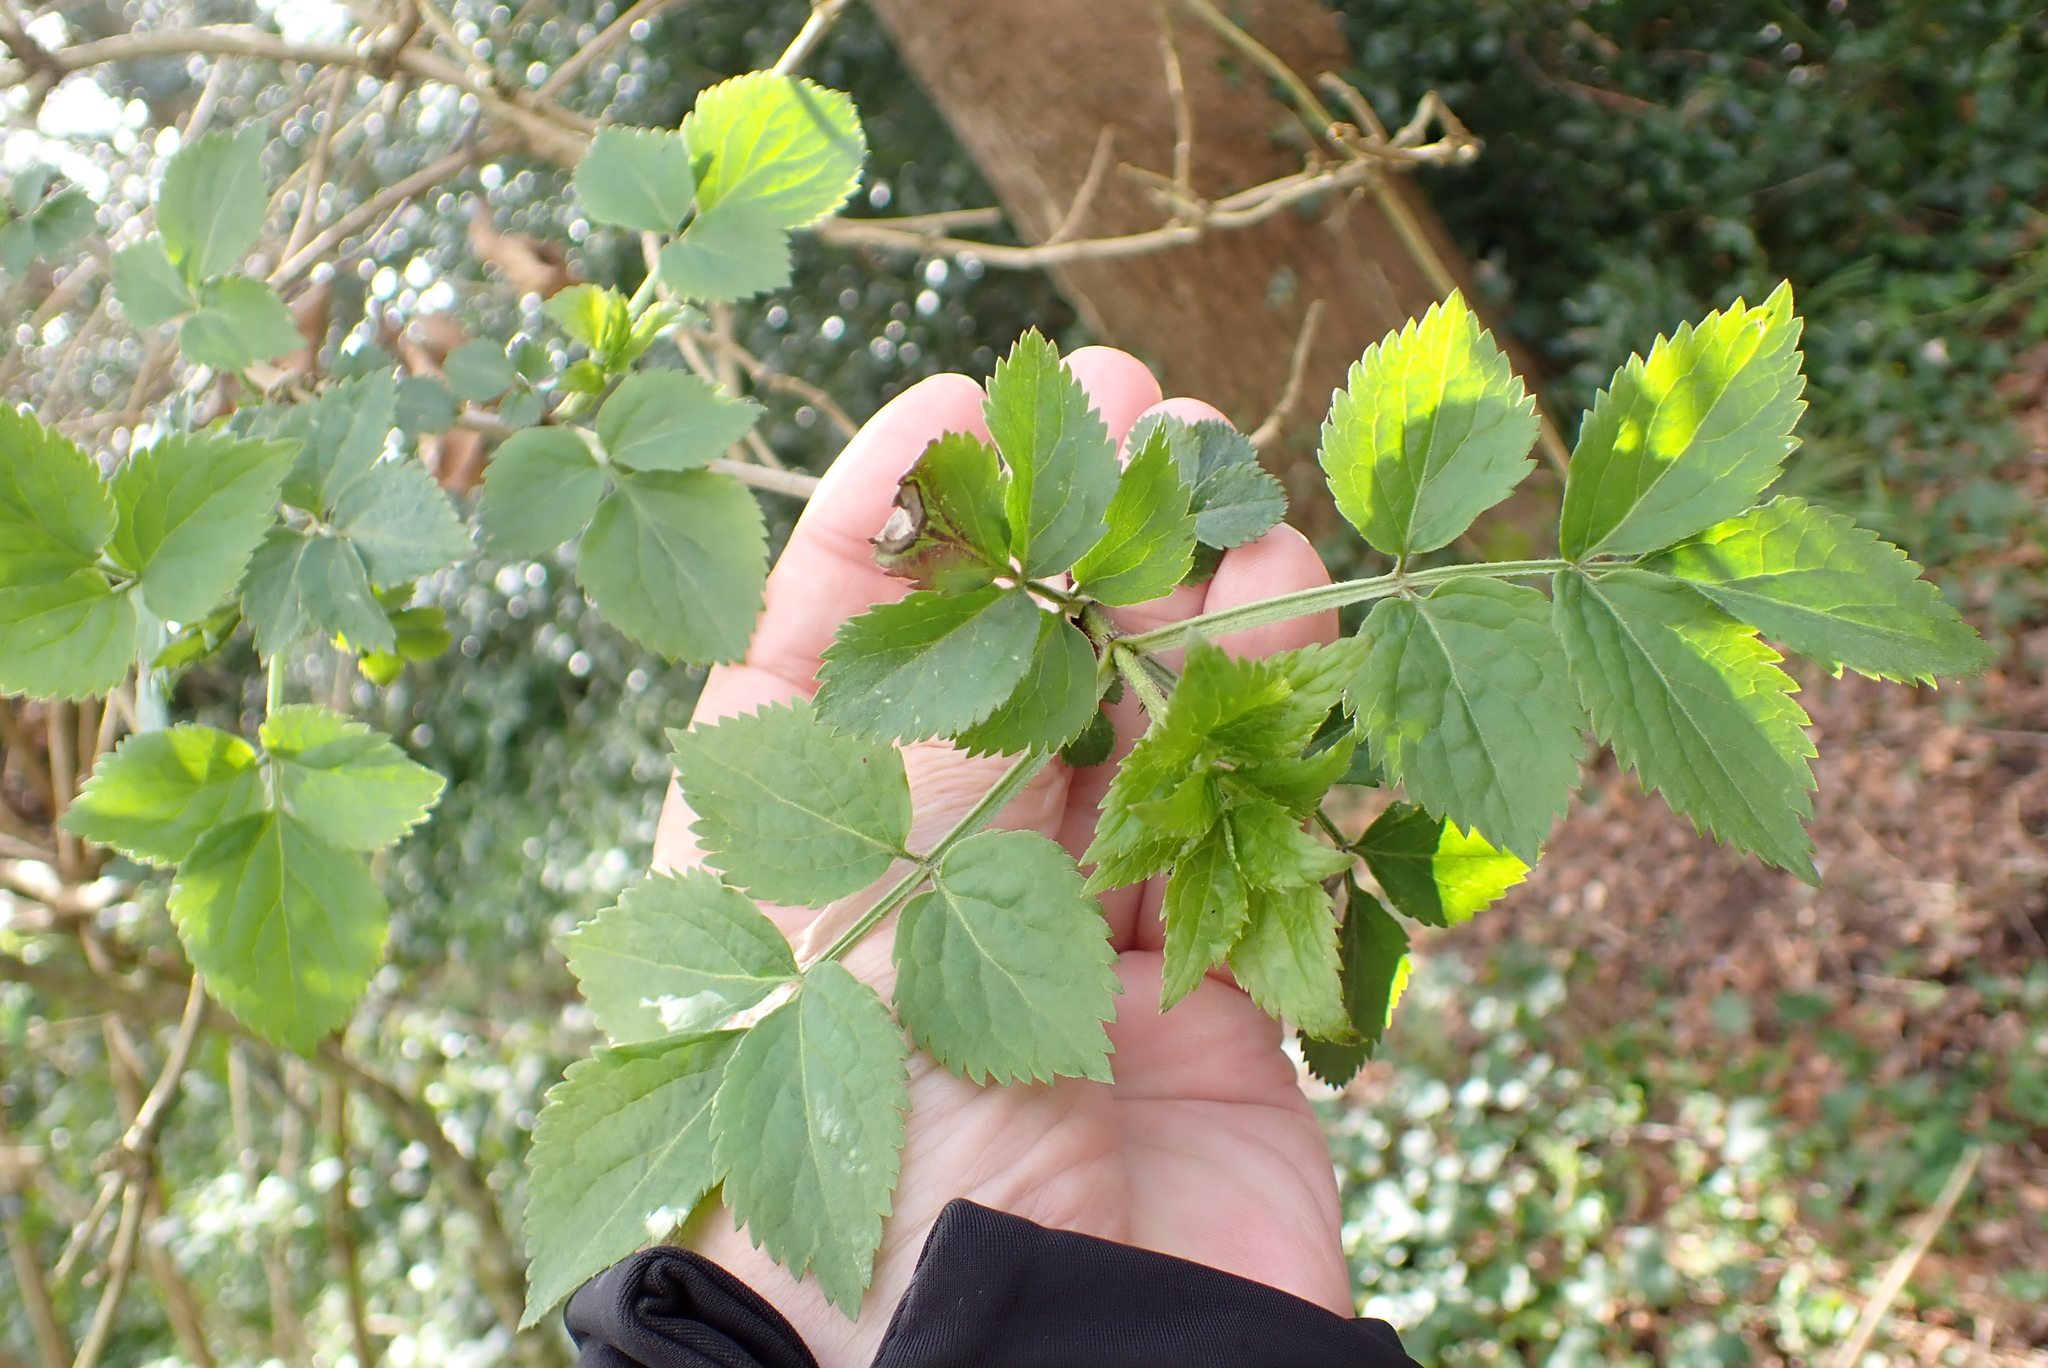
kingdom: Plantae
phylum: Tracheophyta
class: Magnoliopsida
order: Dipsacales
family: Viburnaceae
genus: Sambucus
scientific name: Sambucus nigra
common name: Elder
